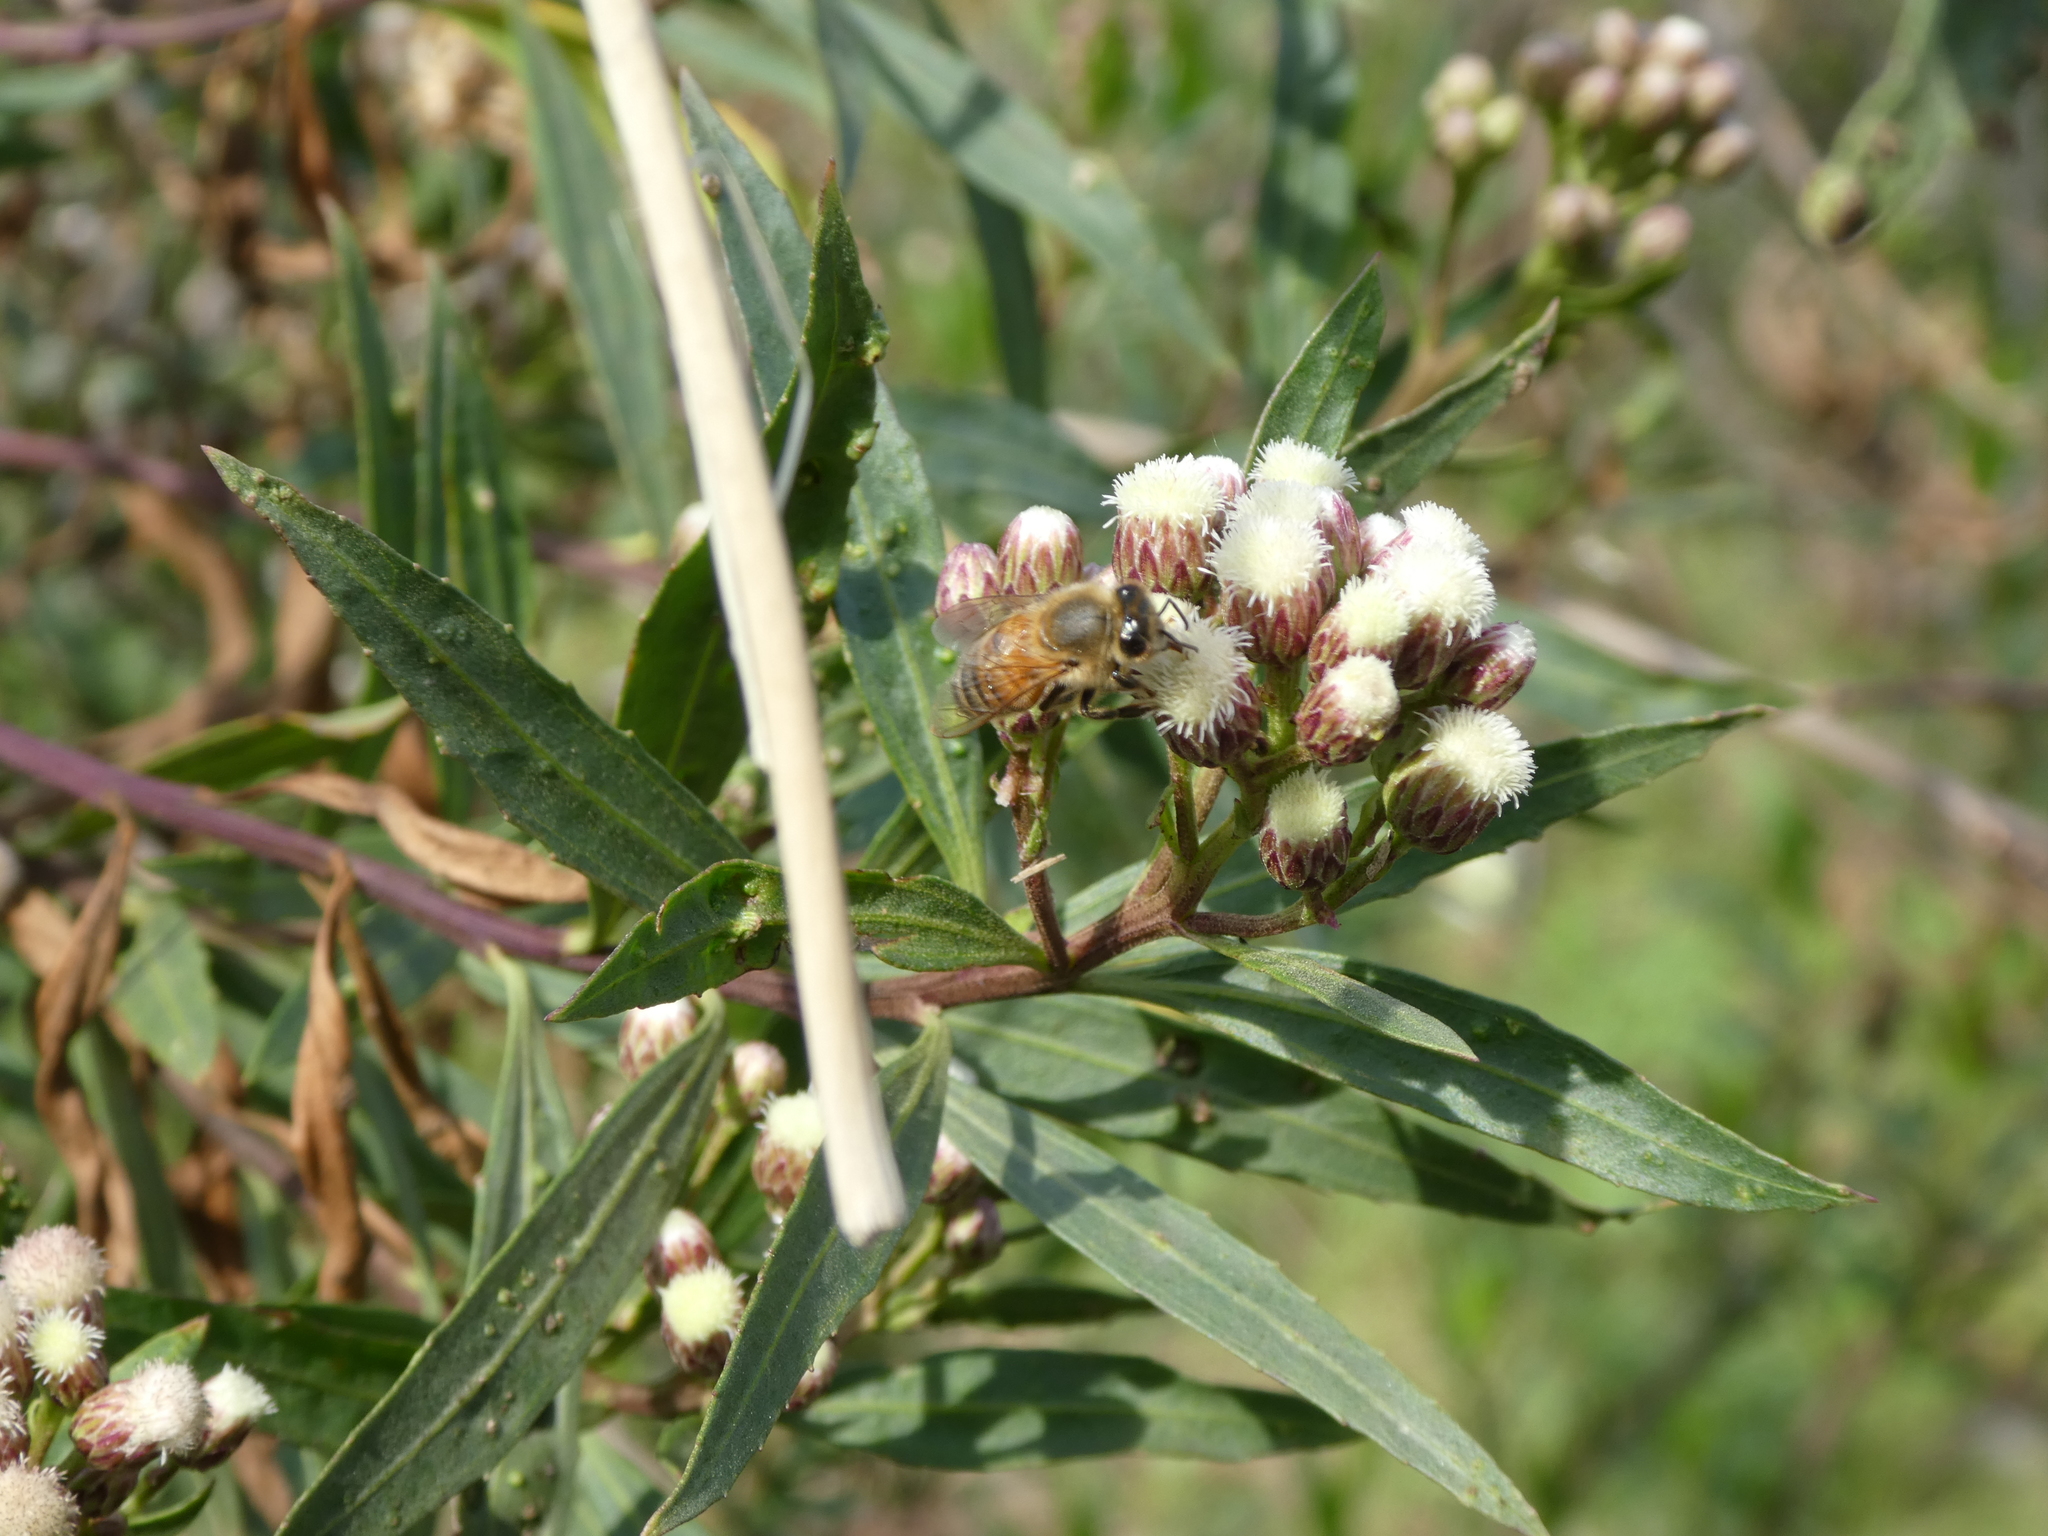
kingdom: Animalia
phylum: Arthropoda
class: Insecta
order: Hymenoptera
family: Apidae
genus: Apis
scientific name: Apis mellifera
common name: Honey bee
